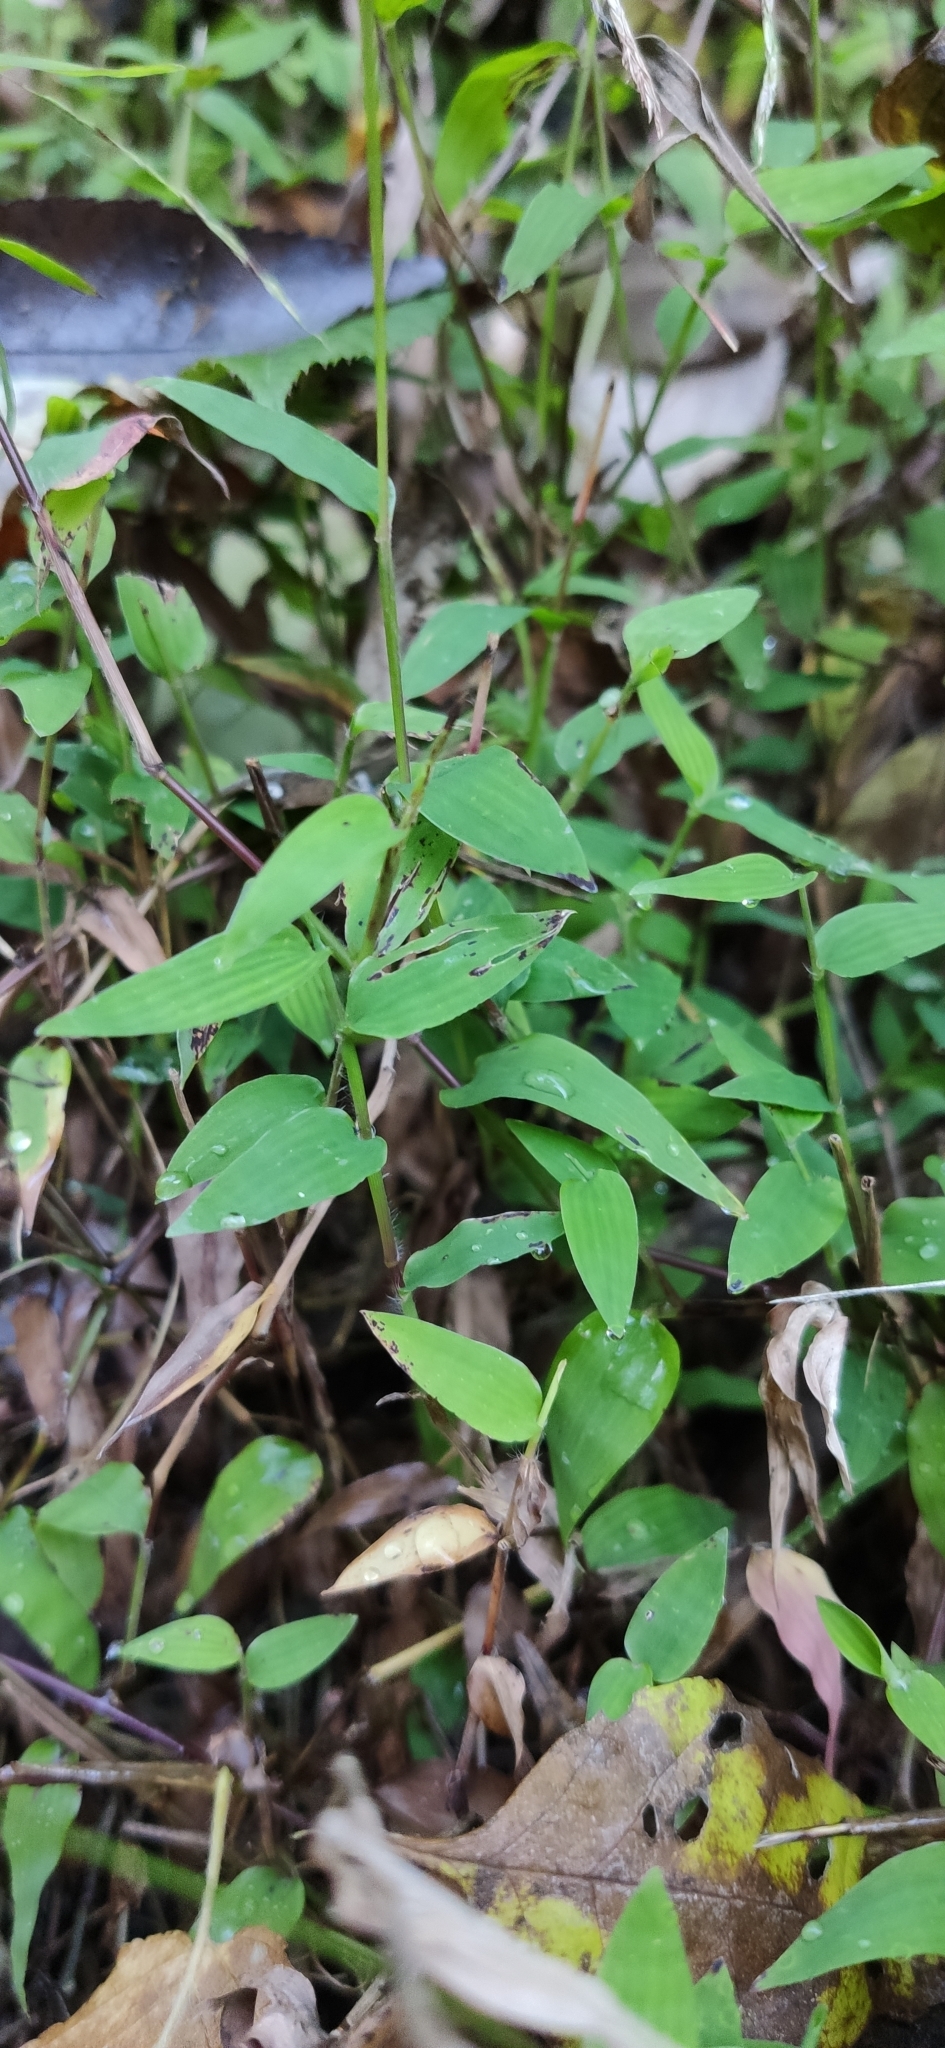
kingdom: Plantae
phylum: Tracheophyta
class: Liliopsida
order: Poales
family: Poaceae
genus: Oplismenus
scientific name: Oplismenus undulatifolius
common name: Wavyleaf basketgrass
